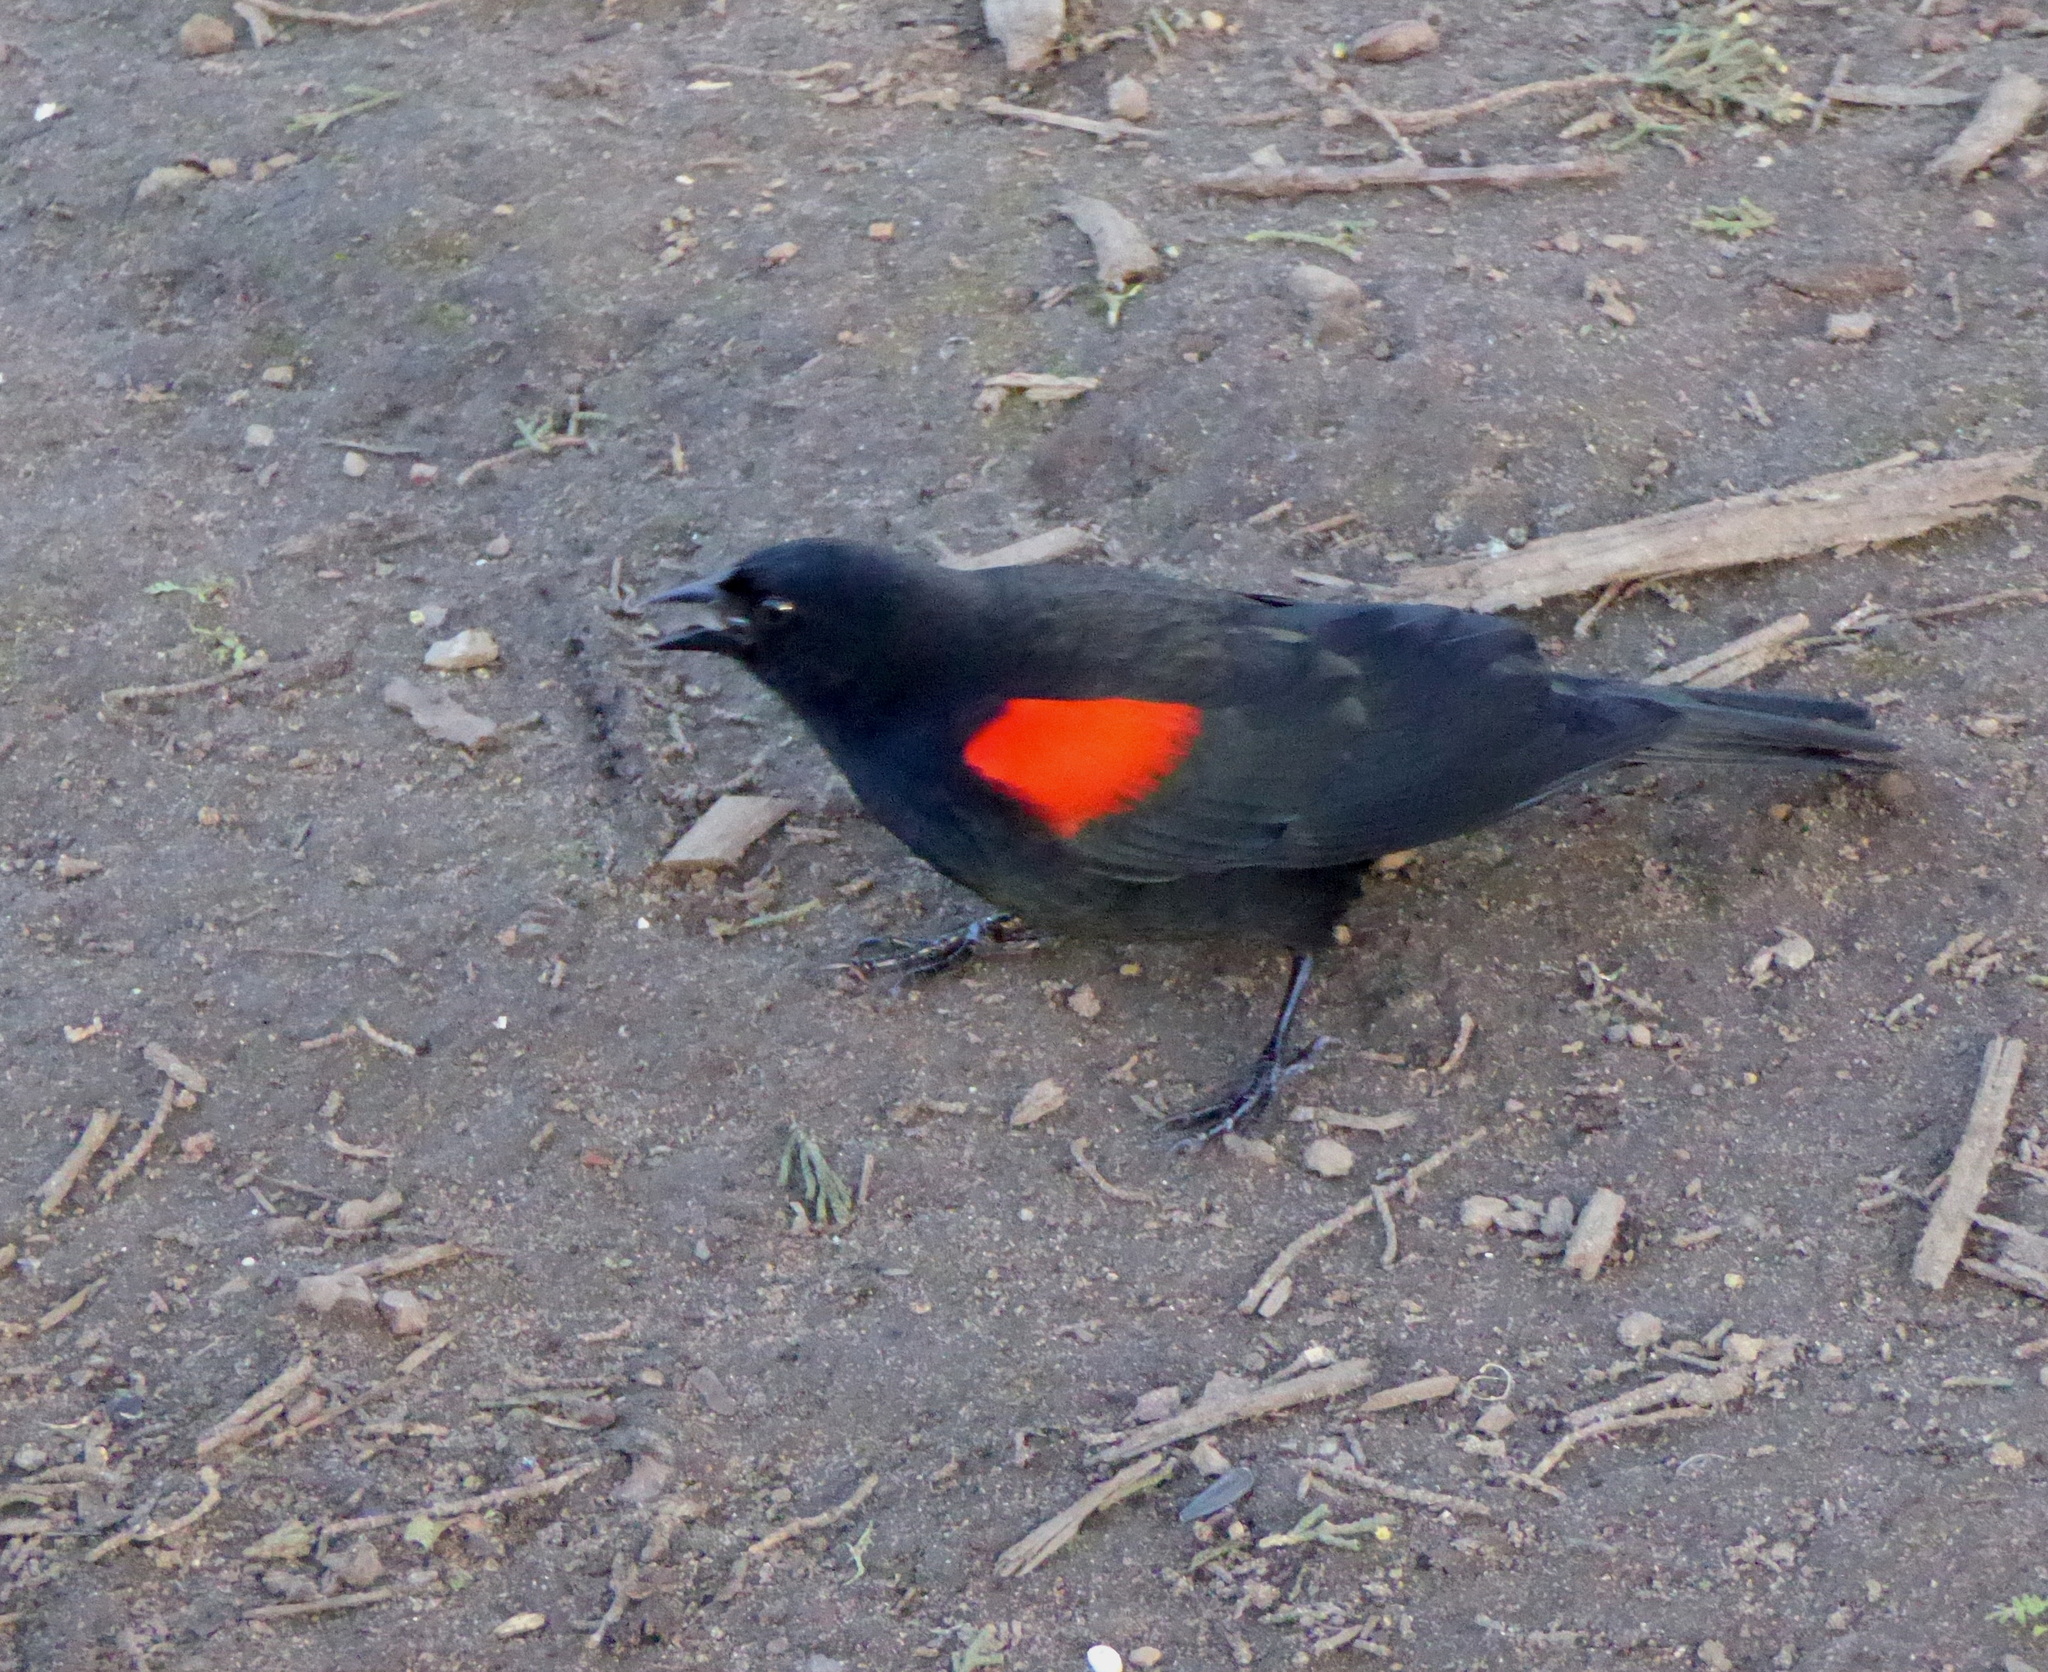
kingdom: Animalia
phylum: Chordata
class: Aves
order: Passeriformes
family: Icteridae
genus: Agelaius
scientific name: Agelaius phoeniceus
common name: Red-winged blackbird
